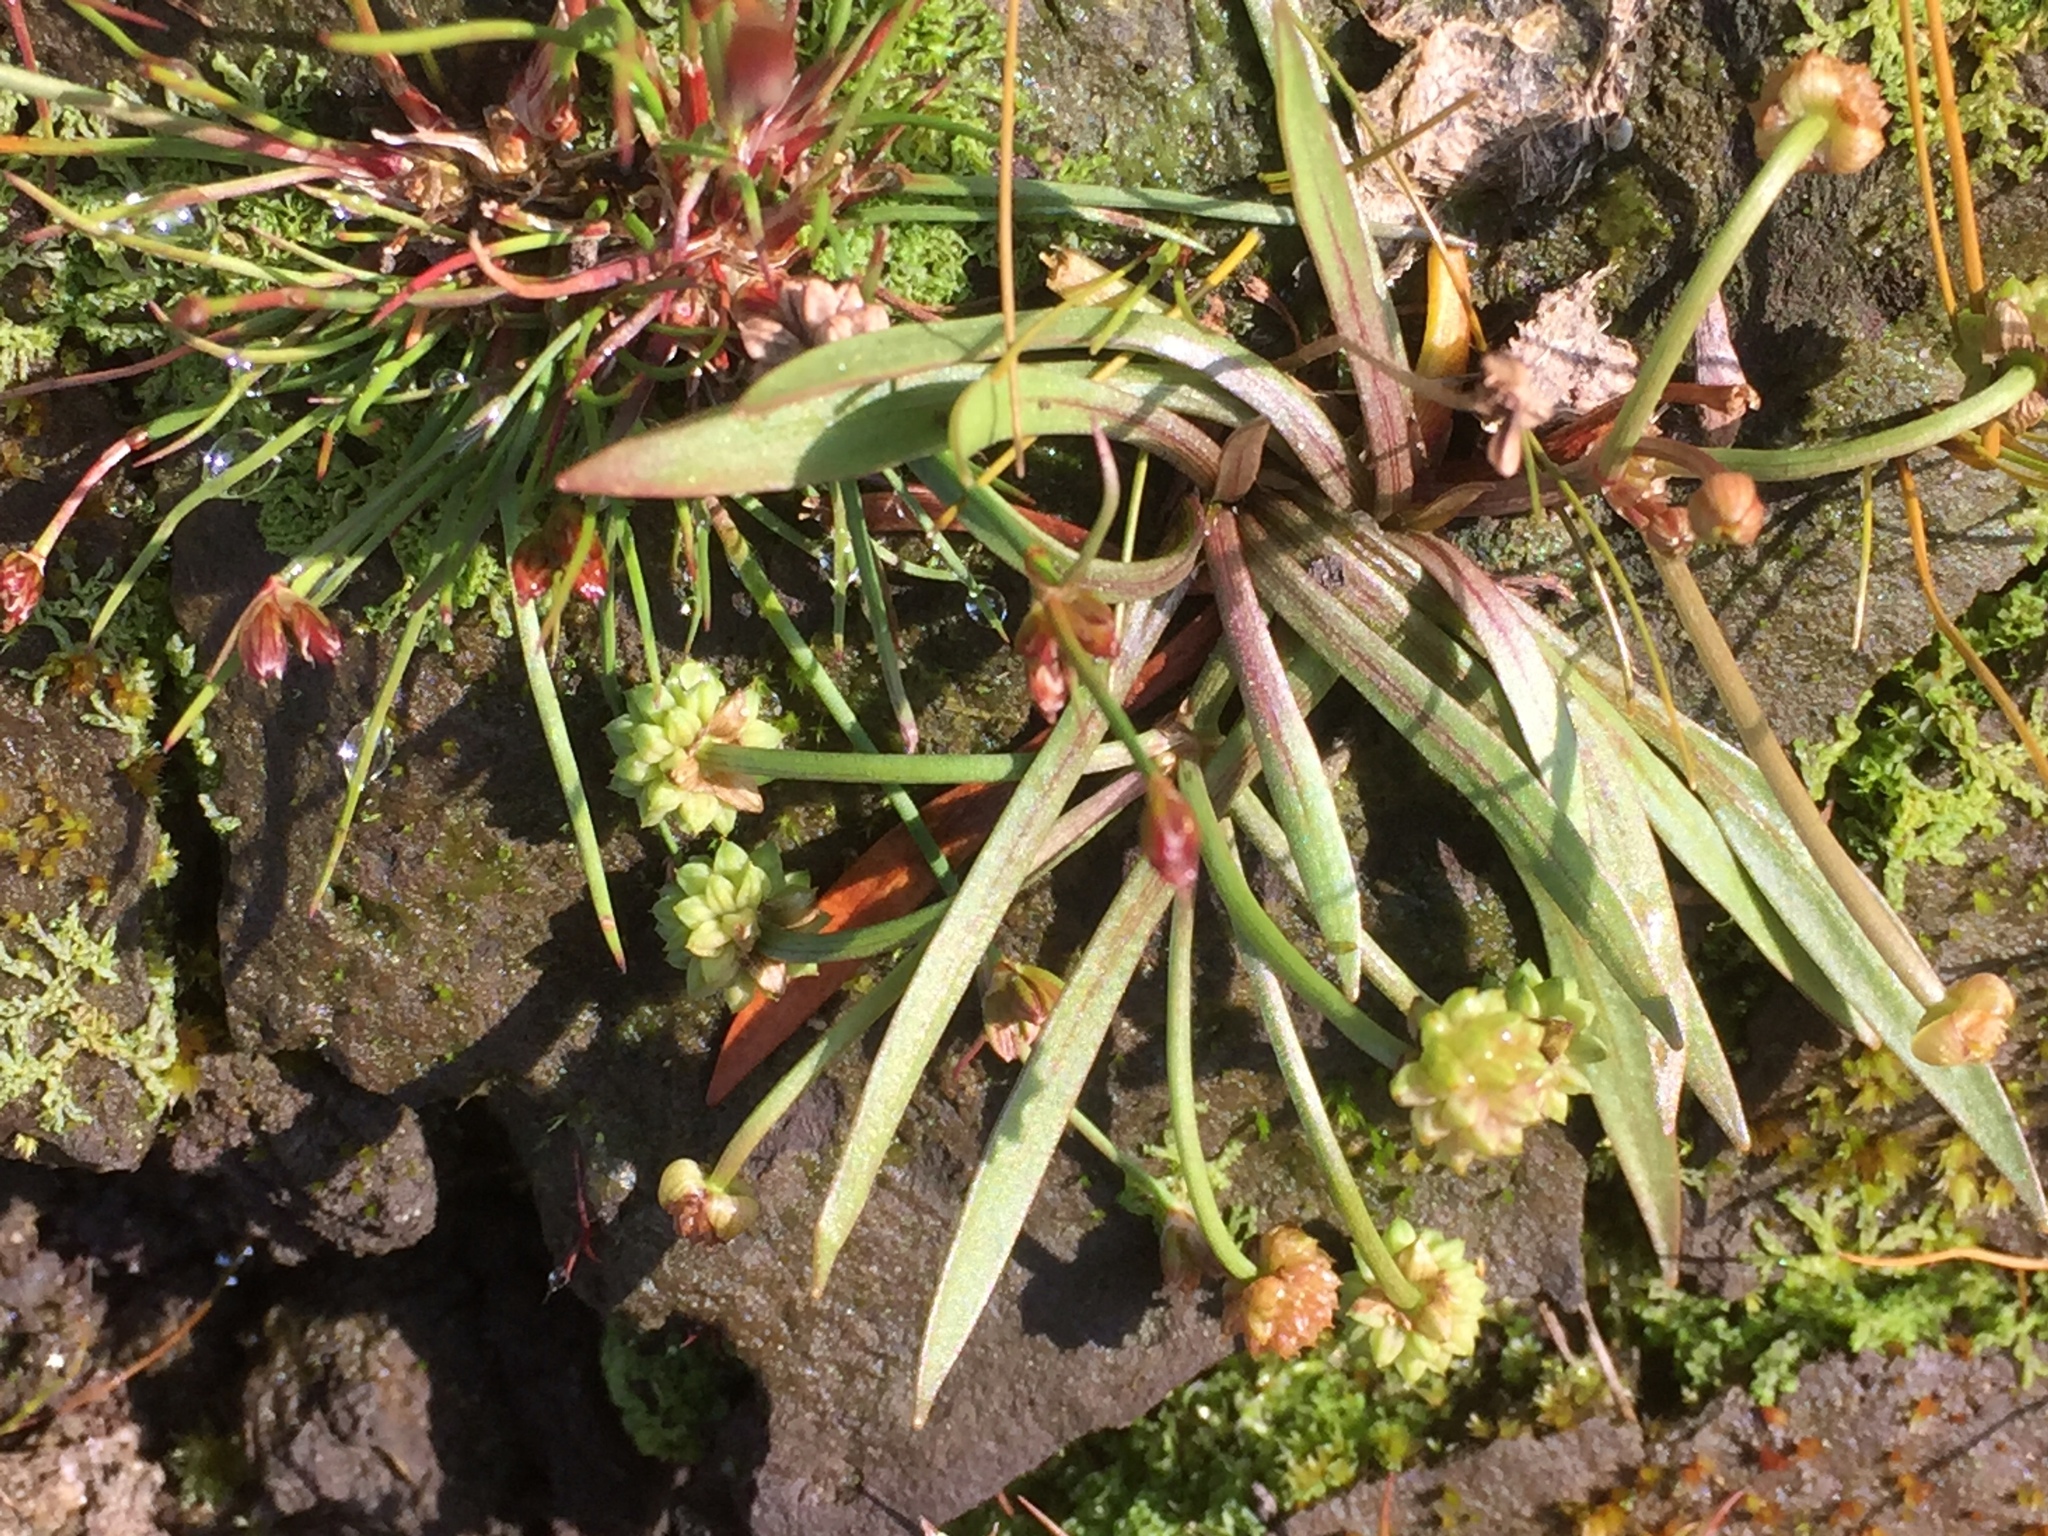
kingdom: Plantae
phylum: Tracheophyta
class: Liliopsida
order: Alismatales
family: Alismataceae
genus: Baldellia
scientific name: Baldellia ranunculoides
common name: Lesser water-plantain
